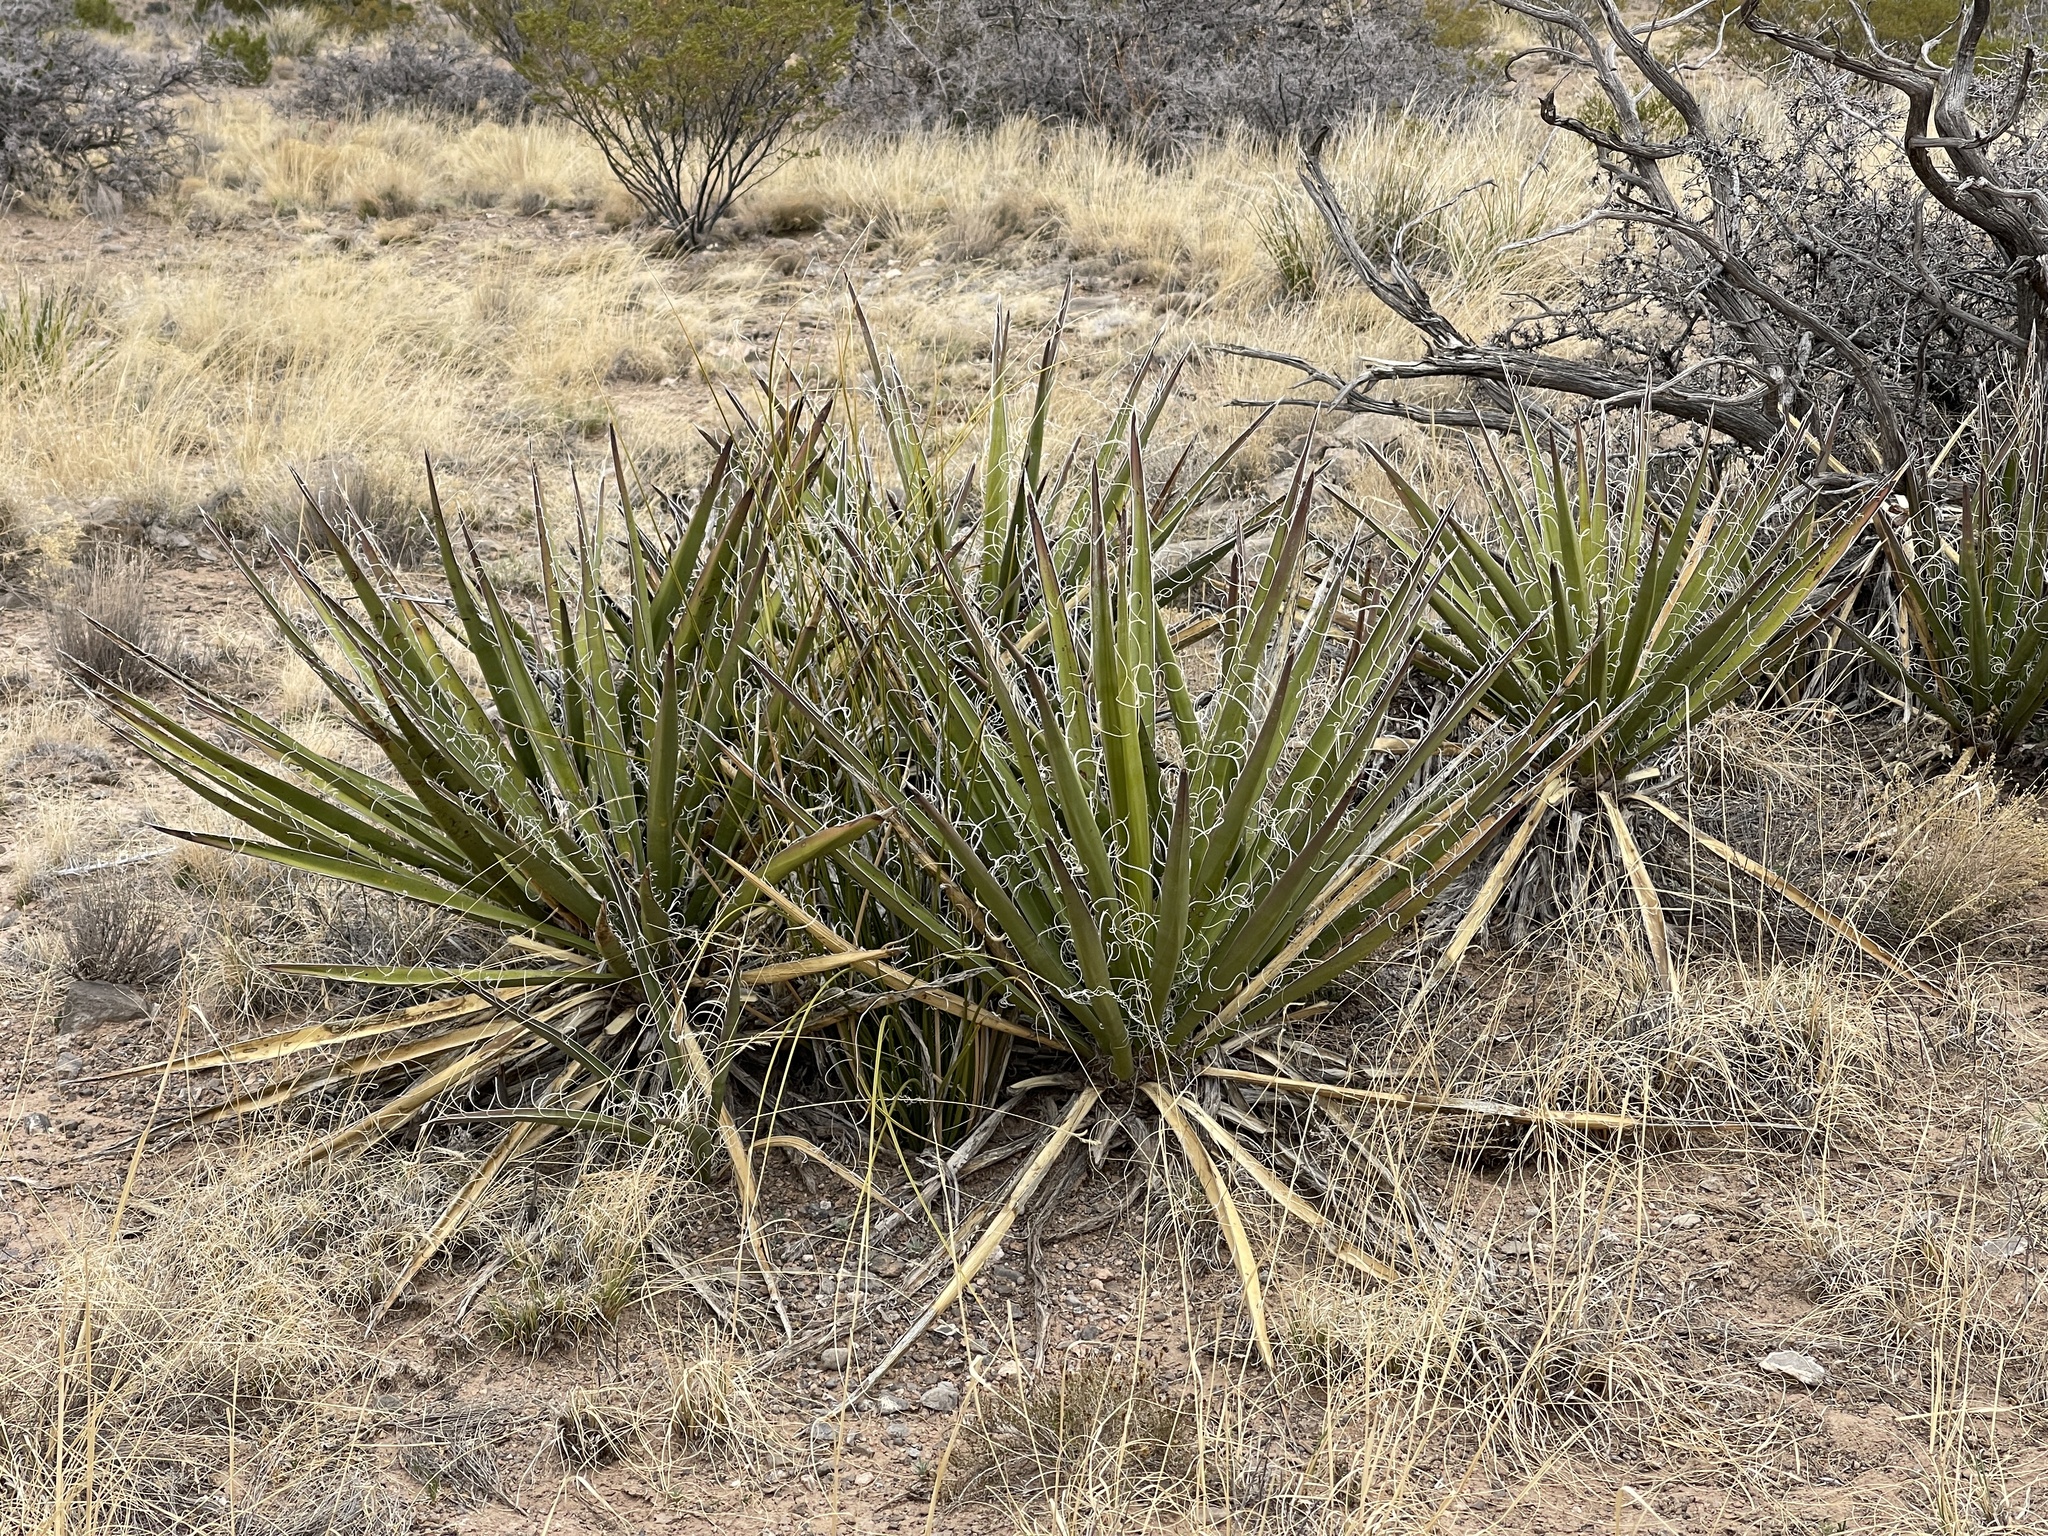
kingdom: Plantae
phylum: Tracheophyta
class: Liliopsida
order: Asparagales
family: Asparagaceae
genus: Yucca
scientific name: Yucca baccata
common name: Banana yucca
